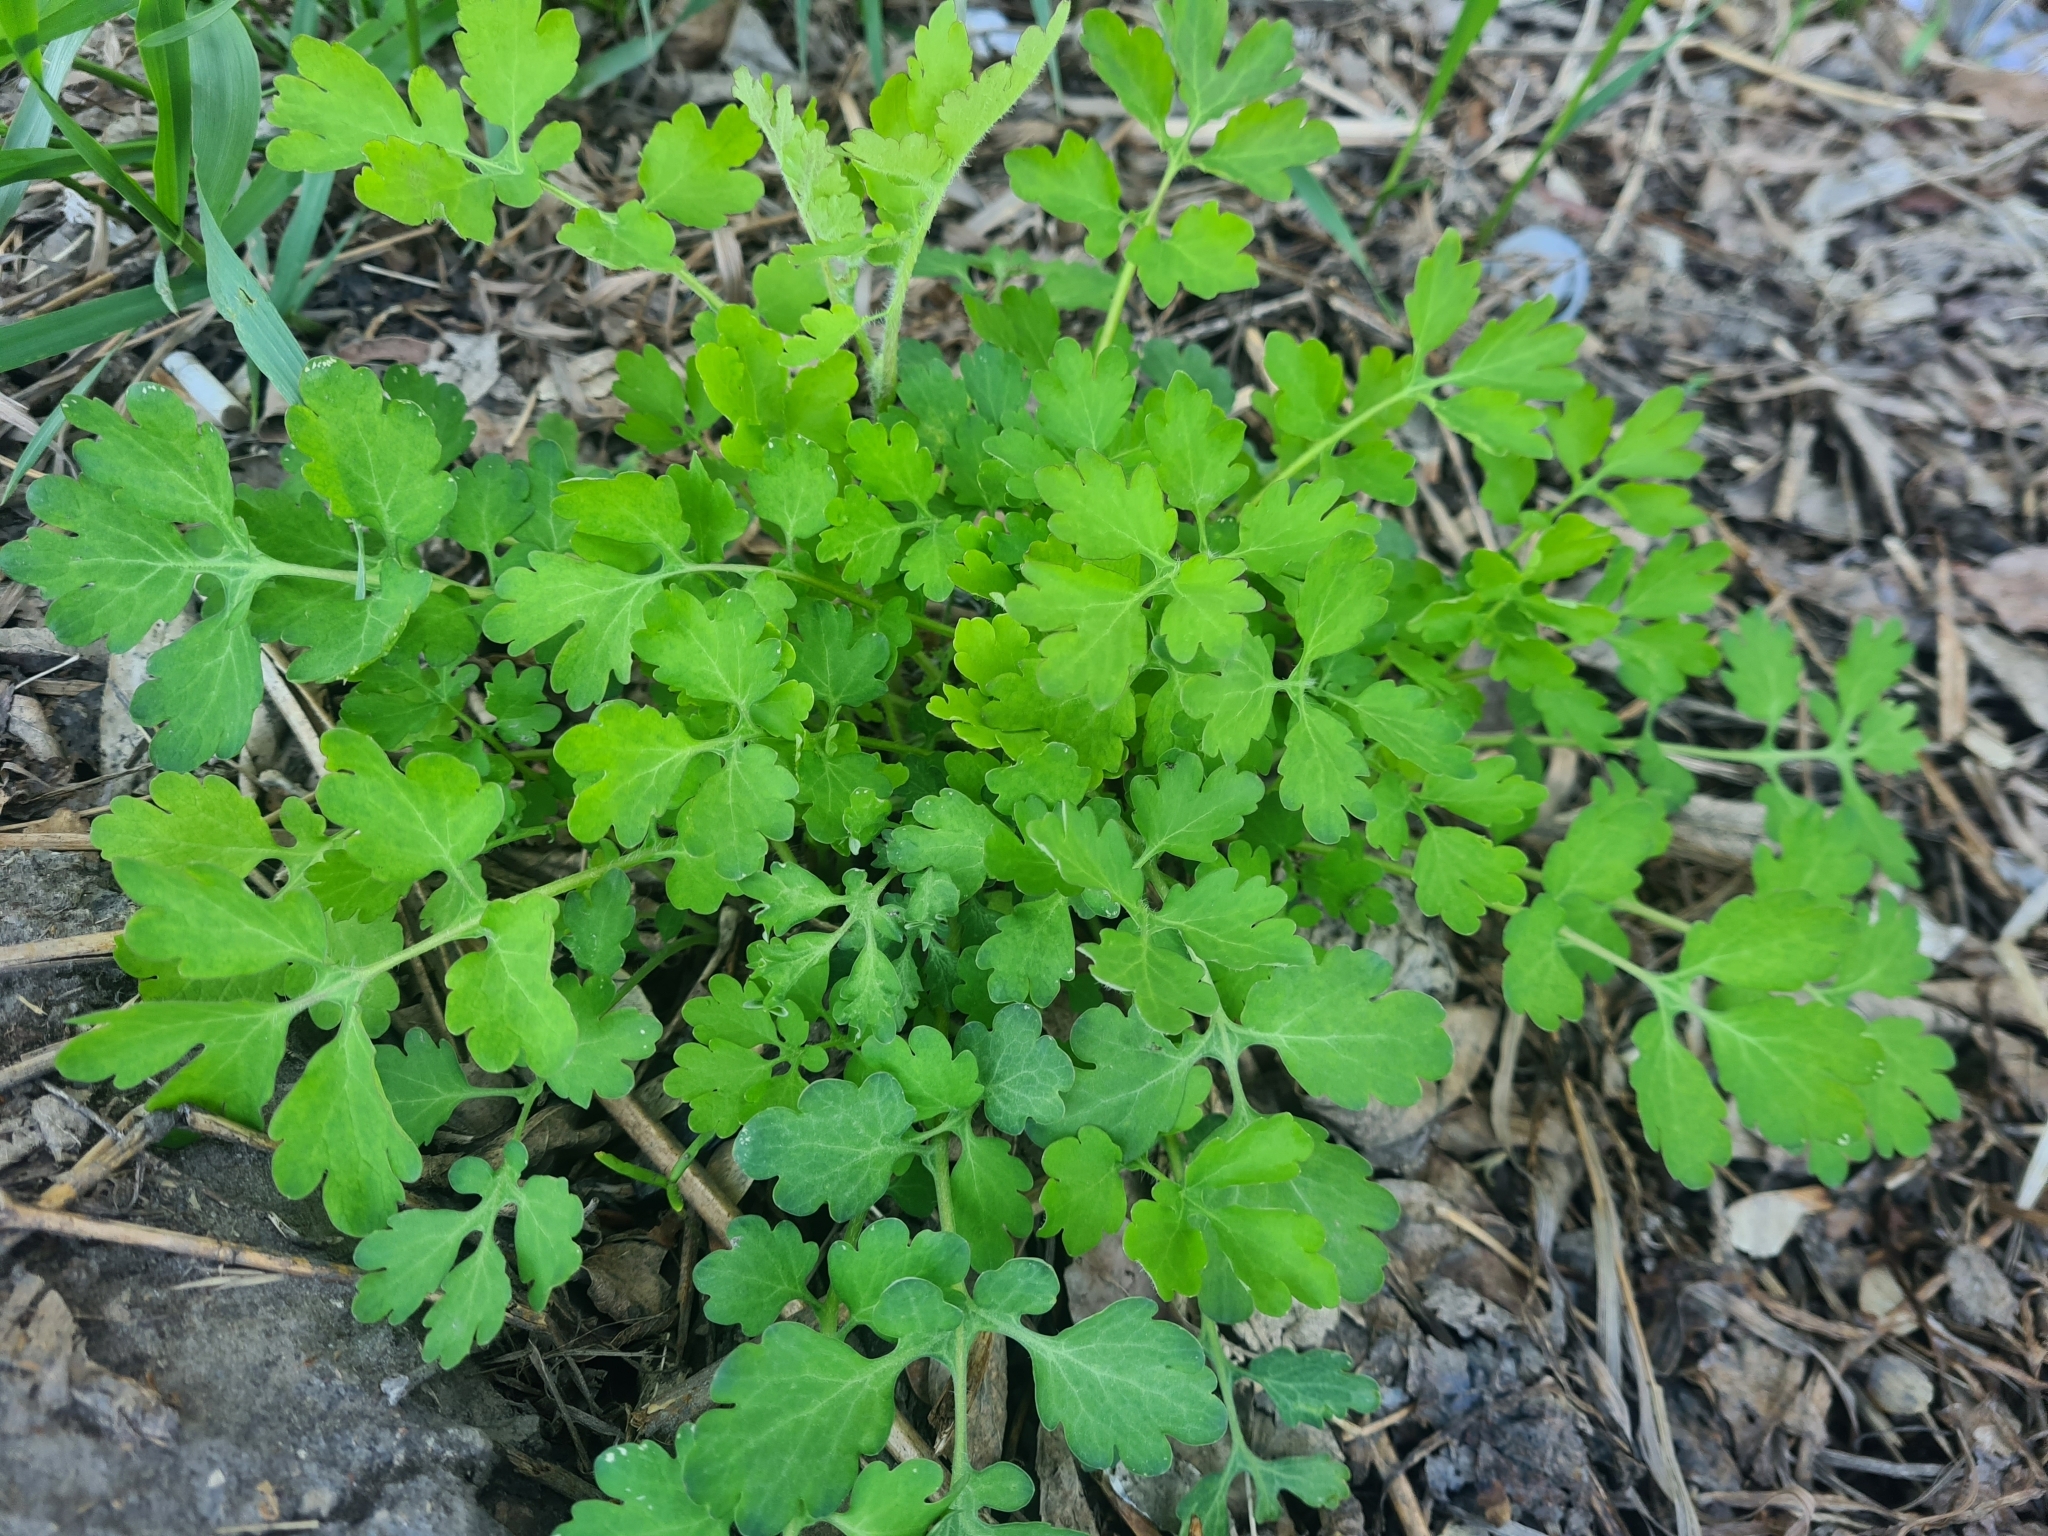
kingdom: Plantae
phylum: Tracheophyta
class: Magnoliopsida
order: Ranunculales
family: Papaveraceae
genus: Chelidonium
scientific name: Chelidonium majus
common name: Greater celandine
